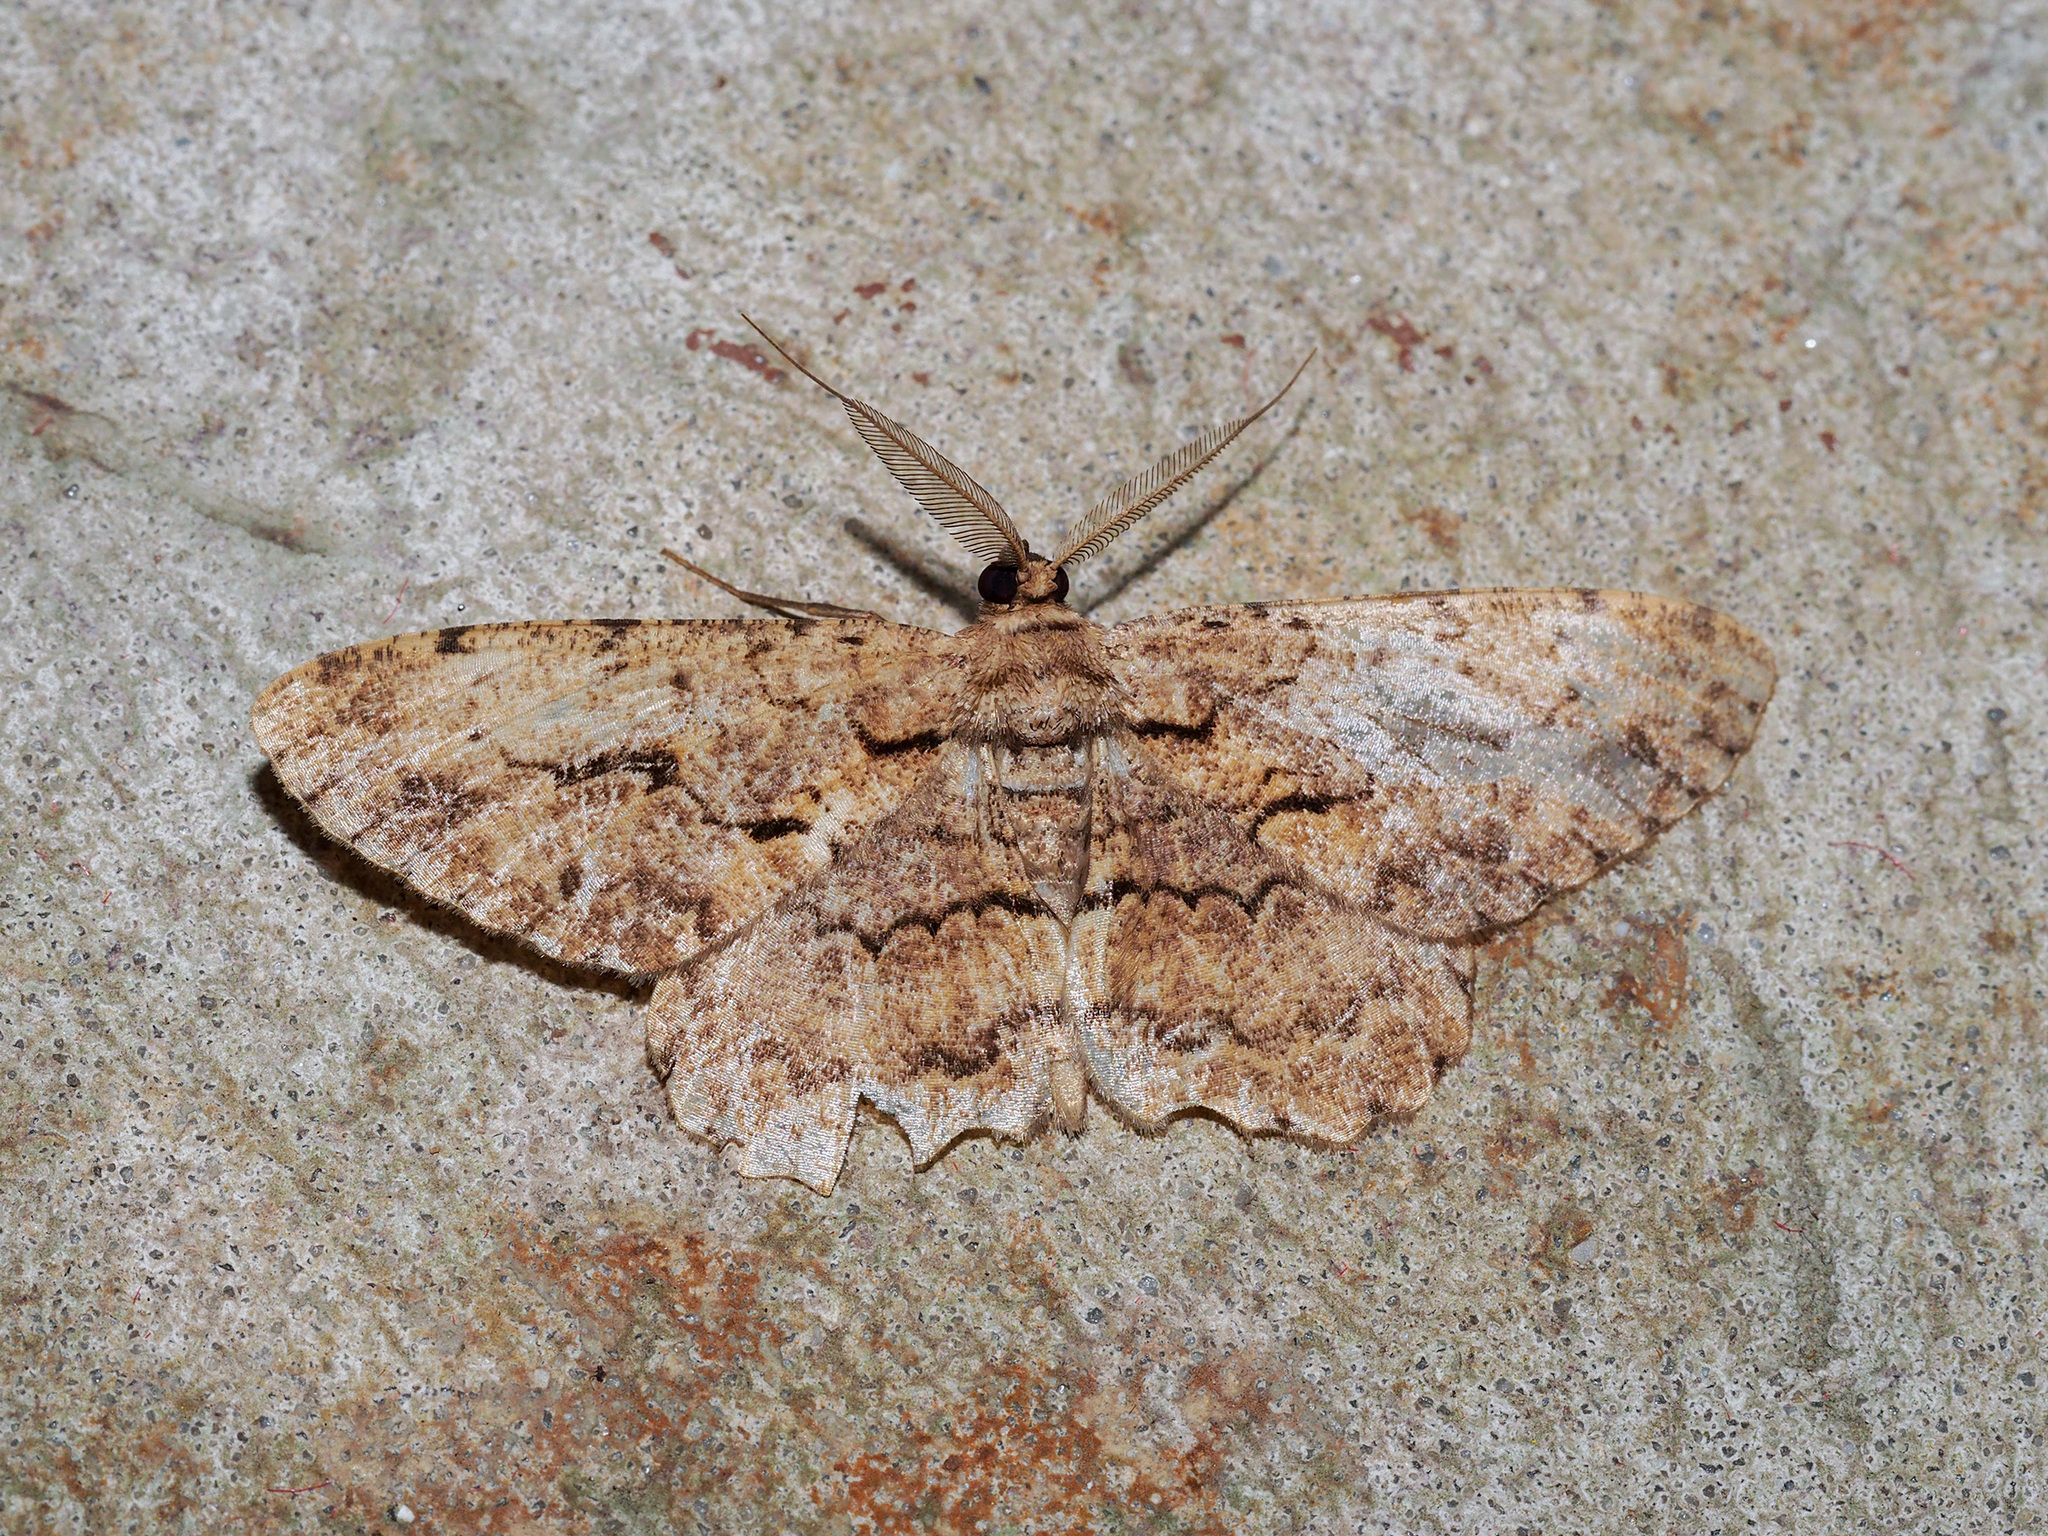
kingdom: Animalia
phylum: Arthropoda
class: Insecta
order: Lepidoptera
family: Geometridae
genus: Hypomecis
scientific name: Hypomecis costaria
